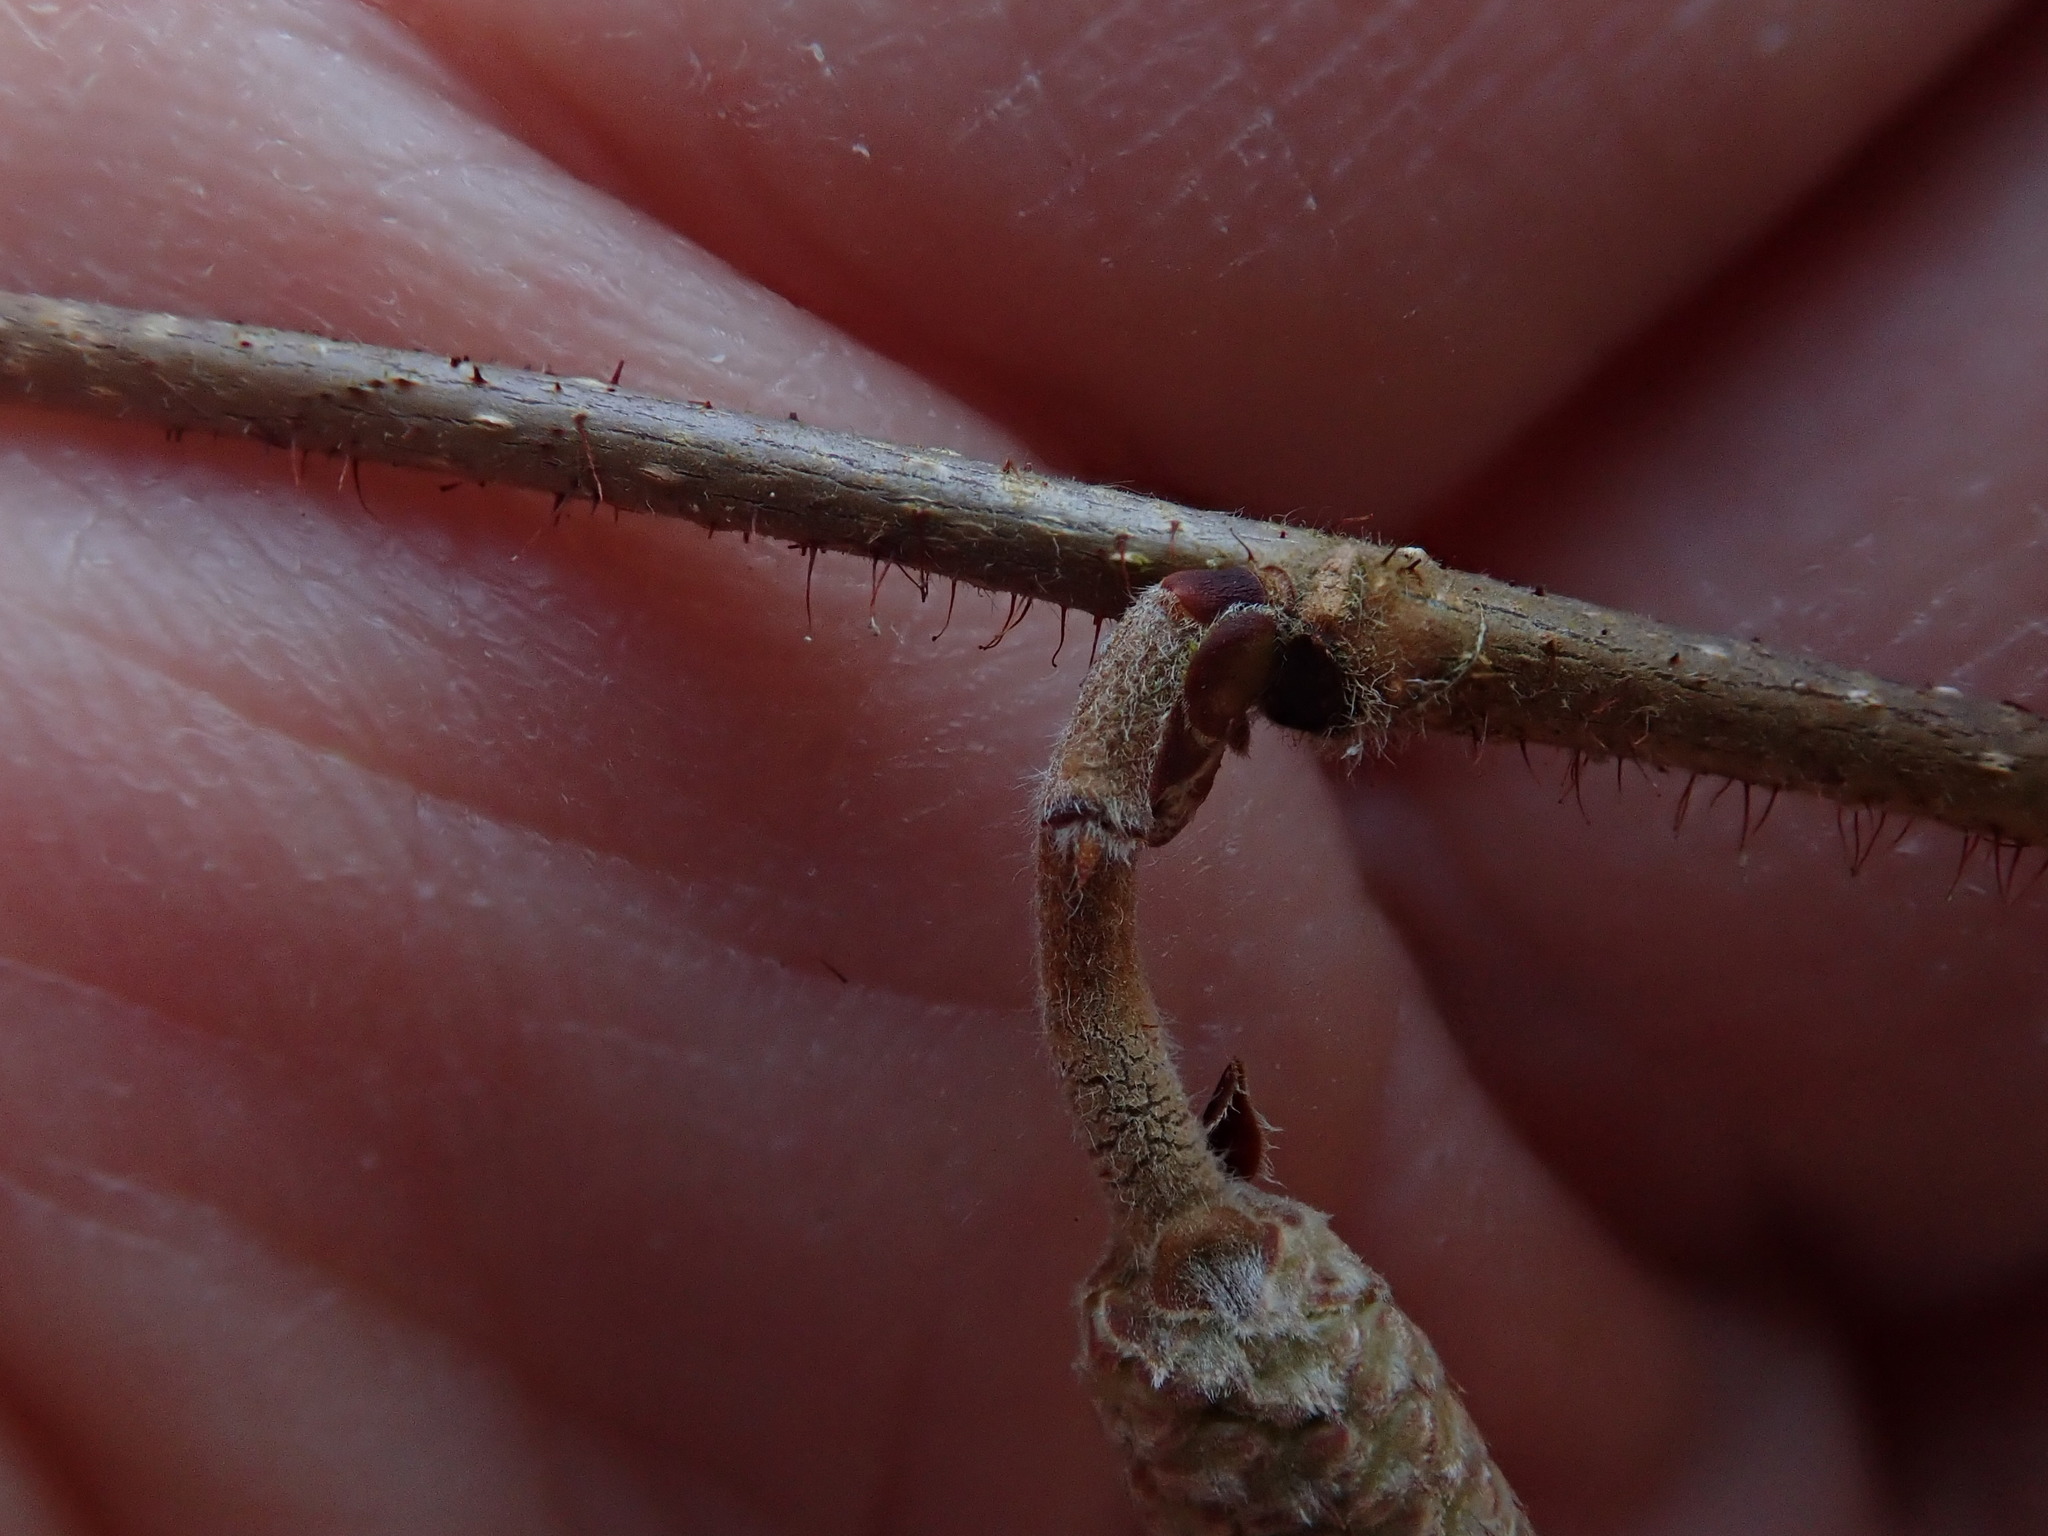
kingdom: Plantae
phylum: Tracheophyta
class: Magnoliopsida
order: Fagales
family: Betulaceae
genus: Corylus
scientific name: Corylus americana
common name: American hazel
